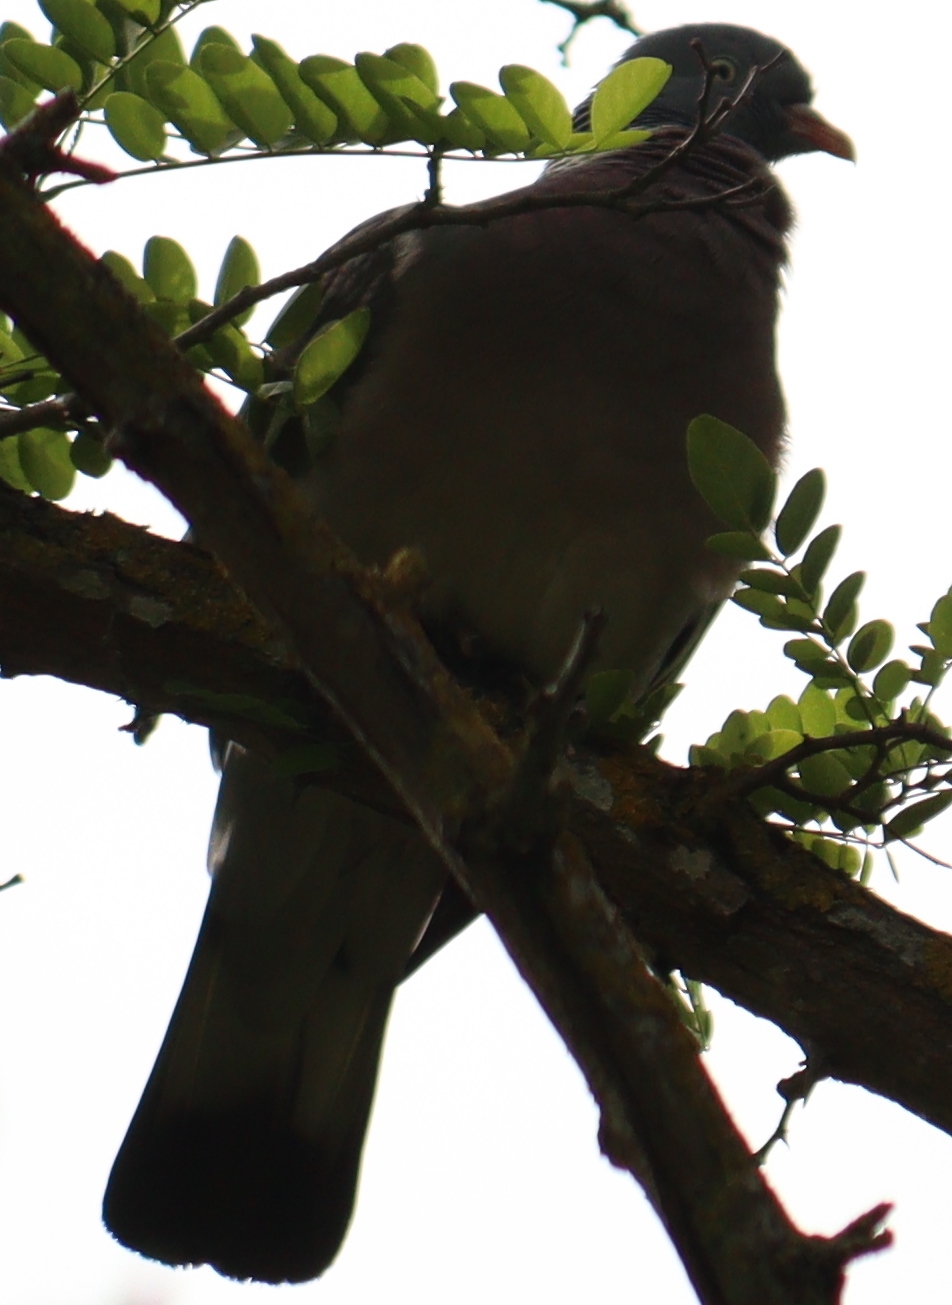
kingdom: Animalia
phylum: Chordata
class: Aves
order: Columbiformes
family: Columbidae
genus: Columba
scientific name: Columba palumbus
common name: Common wood pigeon
